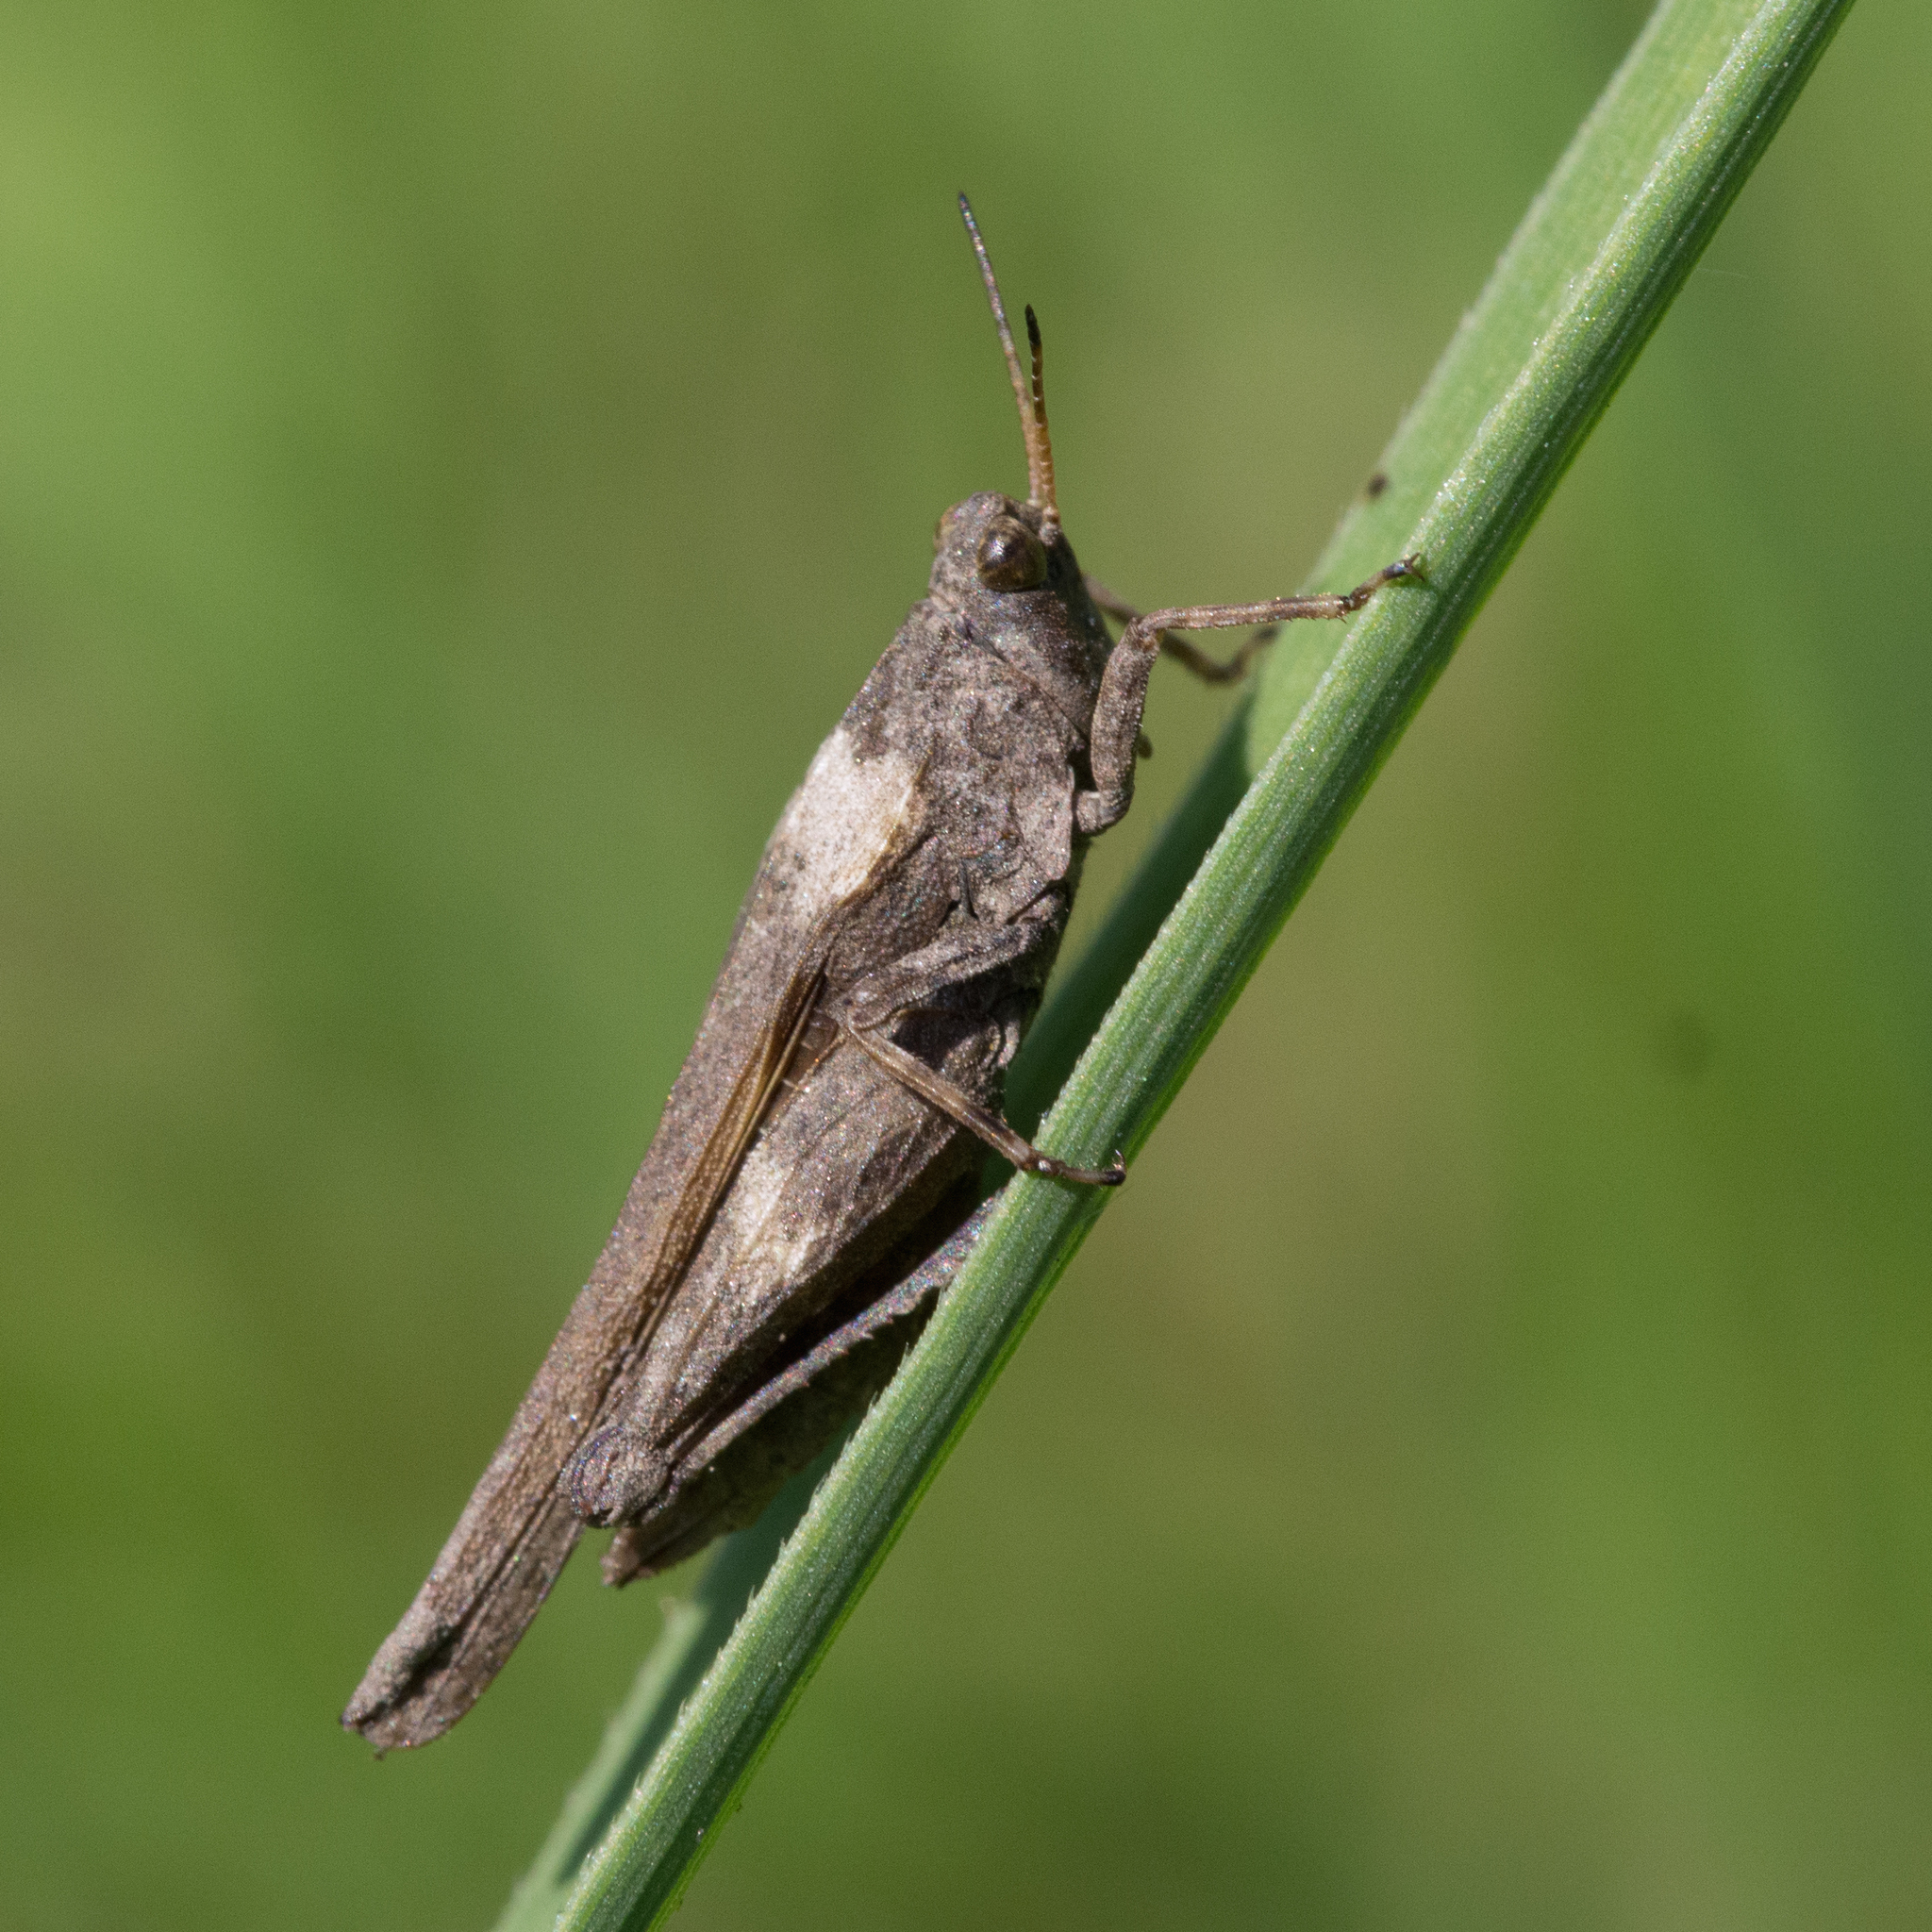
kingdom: Animalia
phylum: Arthropoda
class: Insecta
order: Orthoptera
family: Tetrigidae
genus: Tetrix
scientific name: Tetrix subulata
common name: Slender ground-hopper
